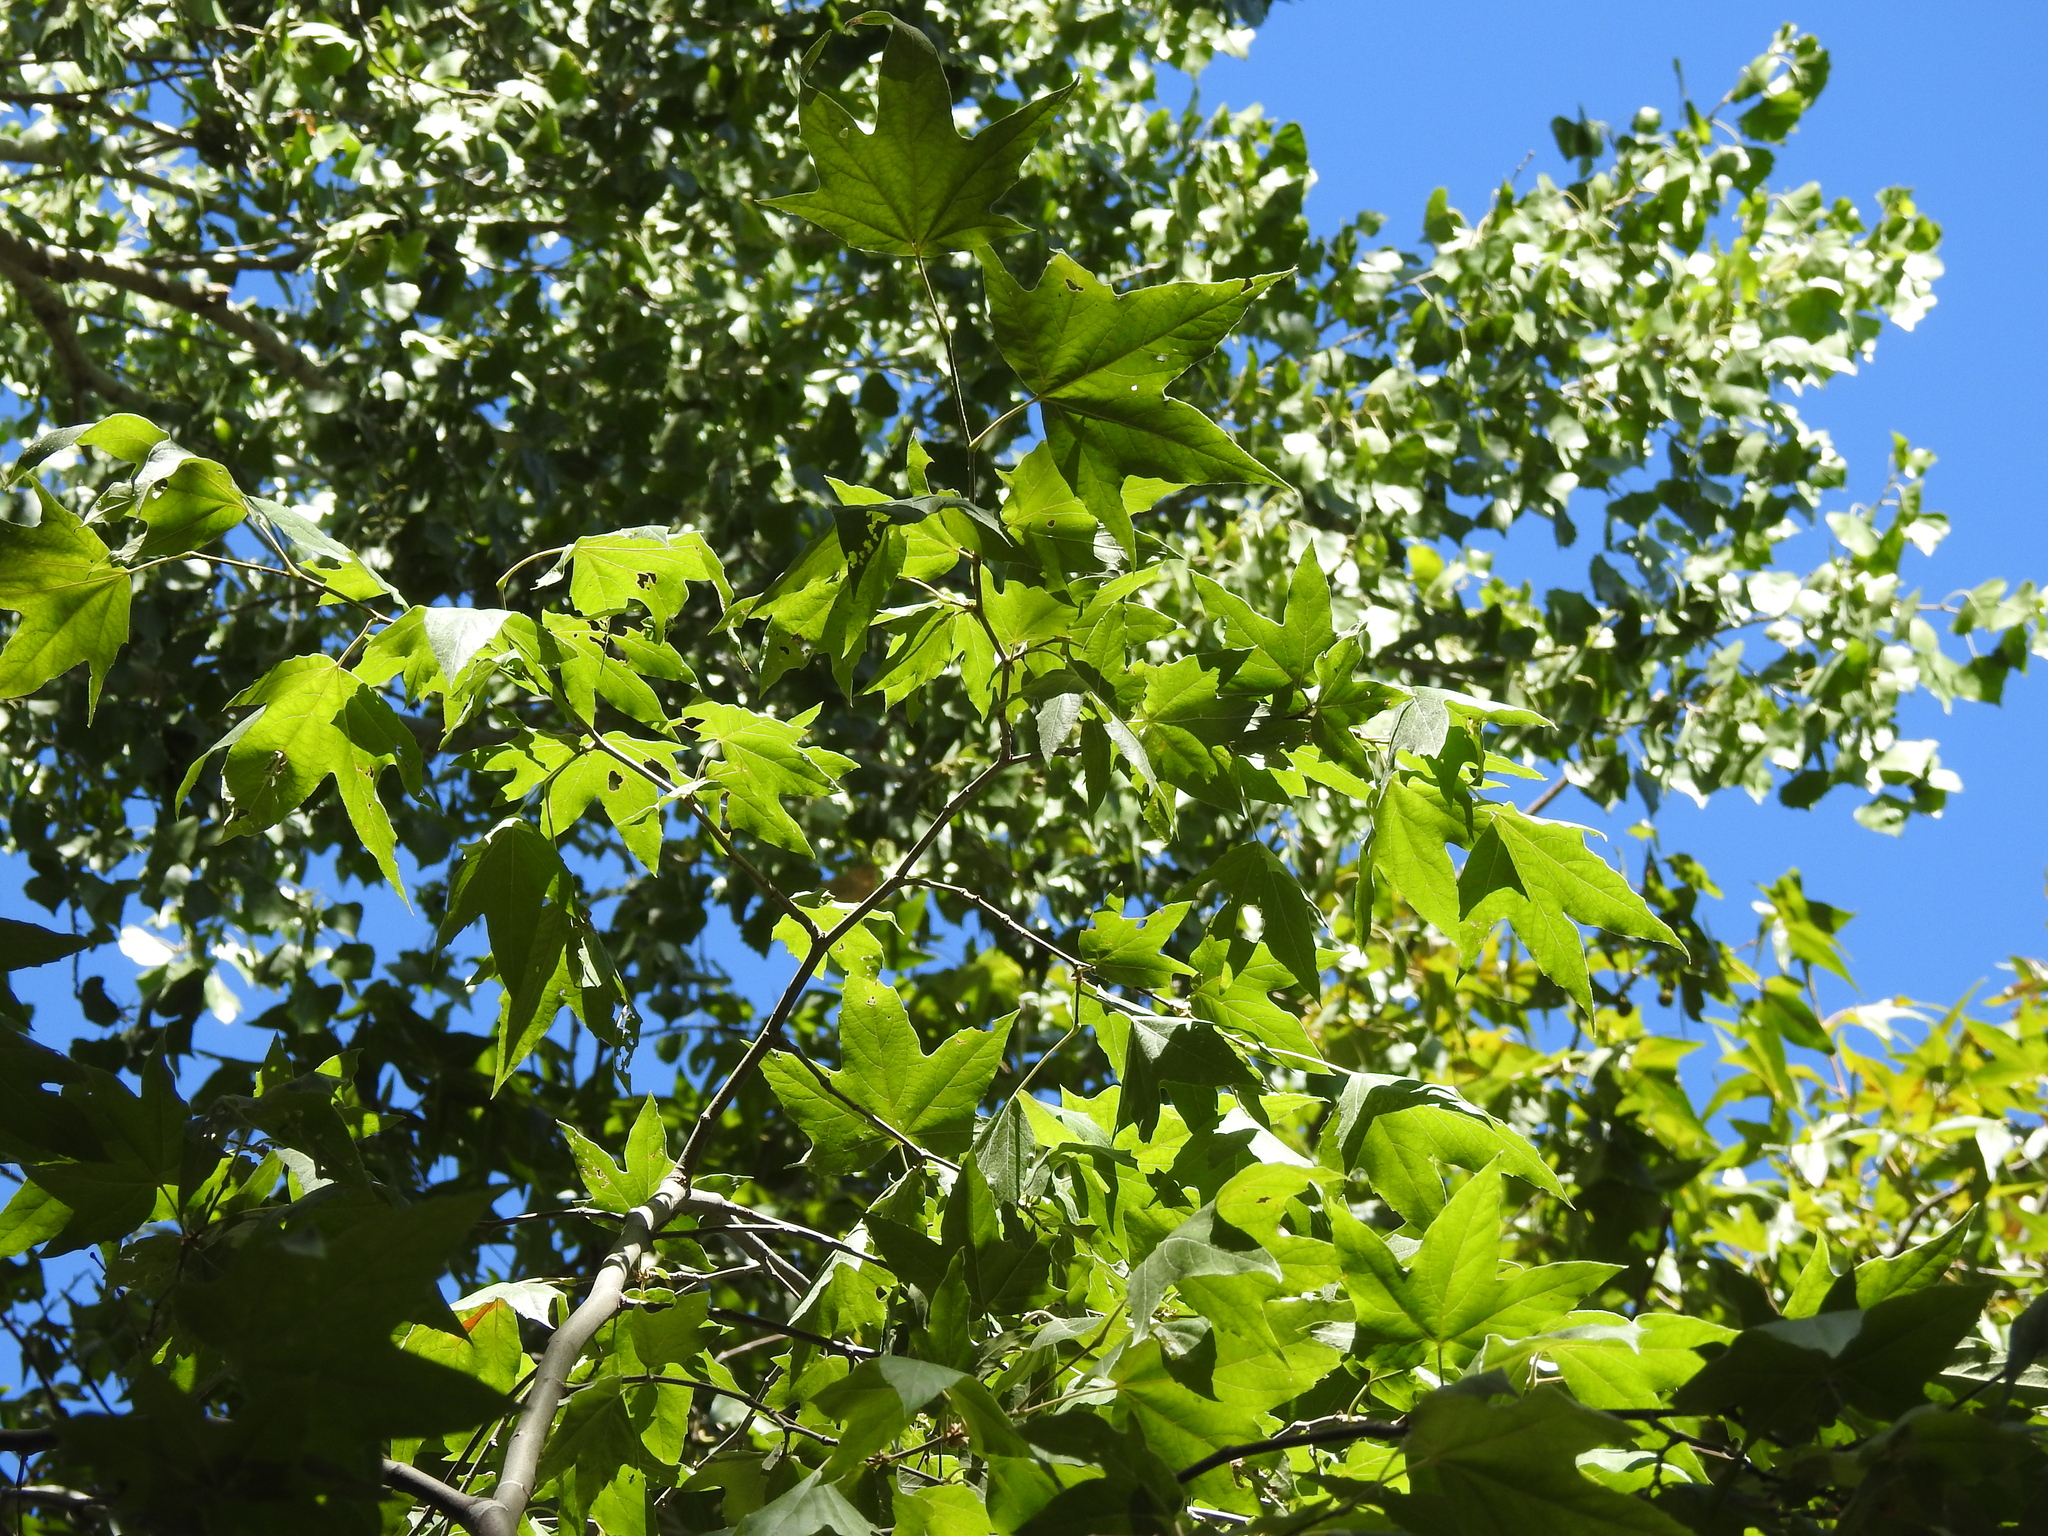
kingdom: Plantae
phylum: Tracheophyta
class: Magnoliopsida
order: Proteales
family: Platanaceae
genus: Platanus
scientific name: Platanus wrightii
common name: Arizona sycamore
